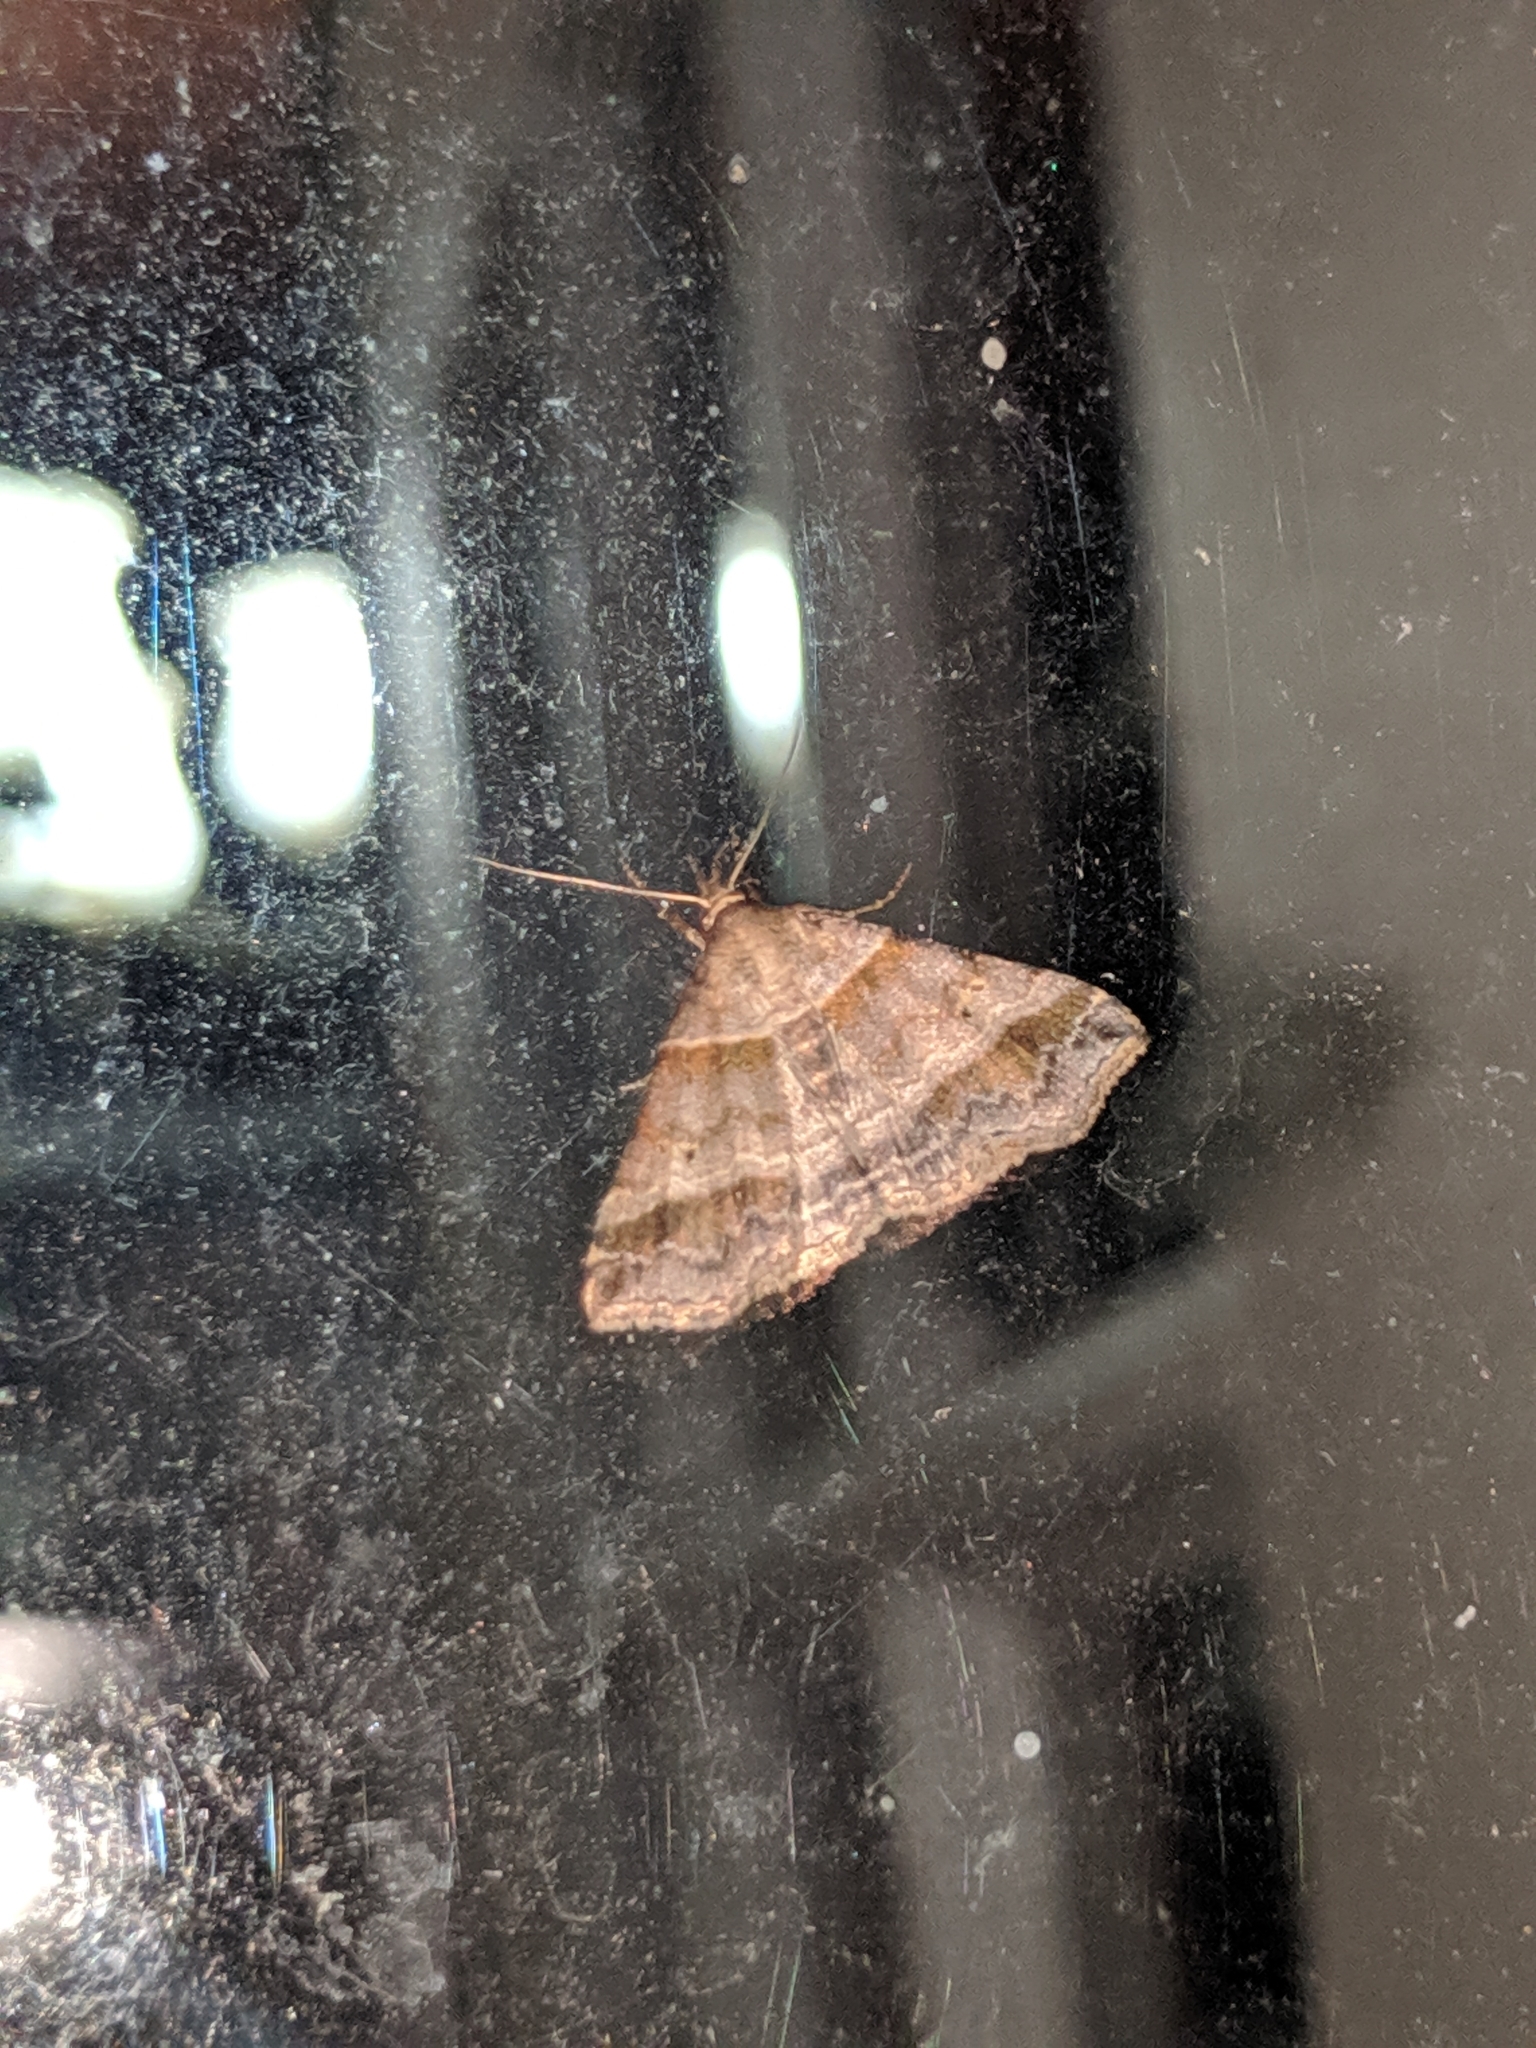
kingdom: Animalia
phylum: Arthropoda
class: Insecta
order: Lepidoptera
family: Erebidae
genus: Phaeolita
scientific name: Phaeolita pyramusalis
